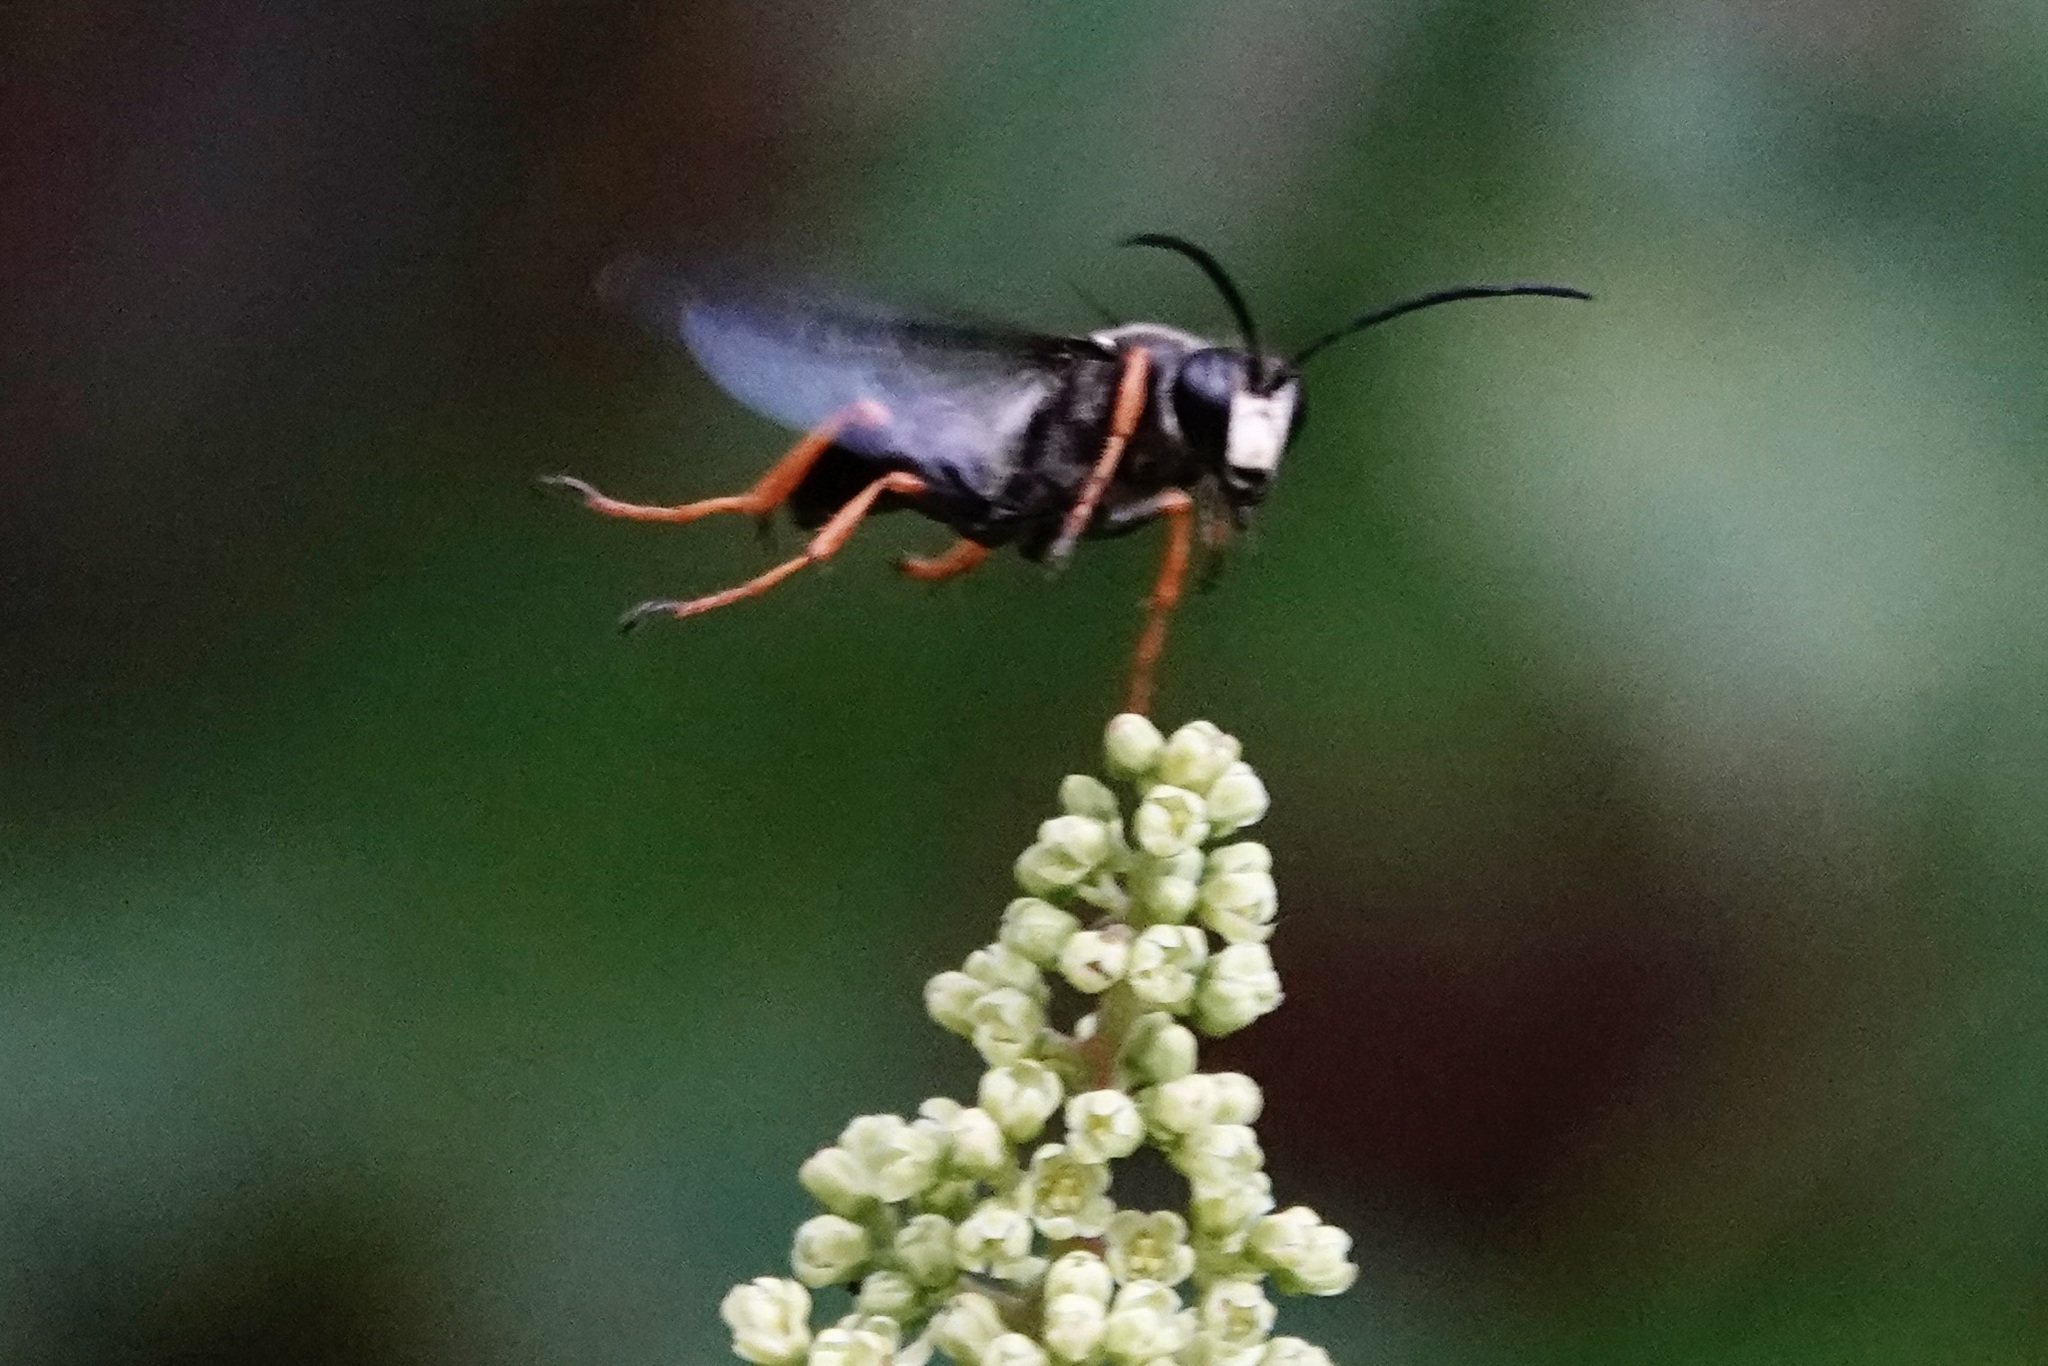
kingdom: Animalia
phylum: Arthropoda
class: Insecta
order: Hymenoptera
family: Sphecidae
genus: Sphex
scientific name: Sphex nudus
